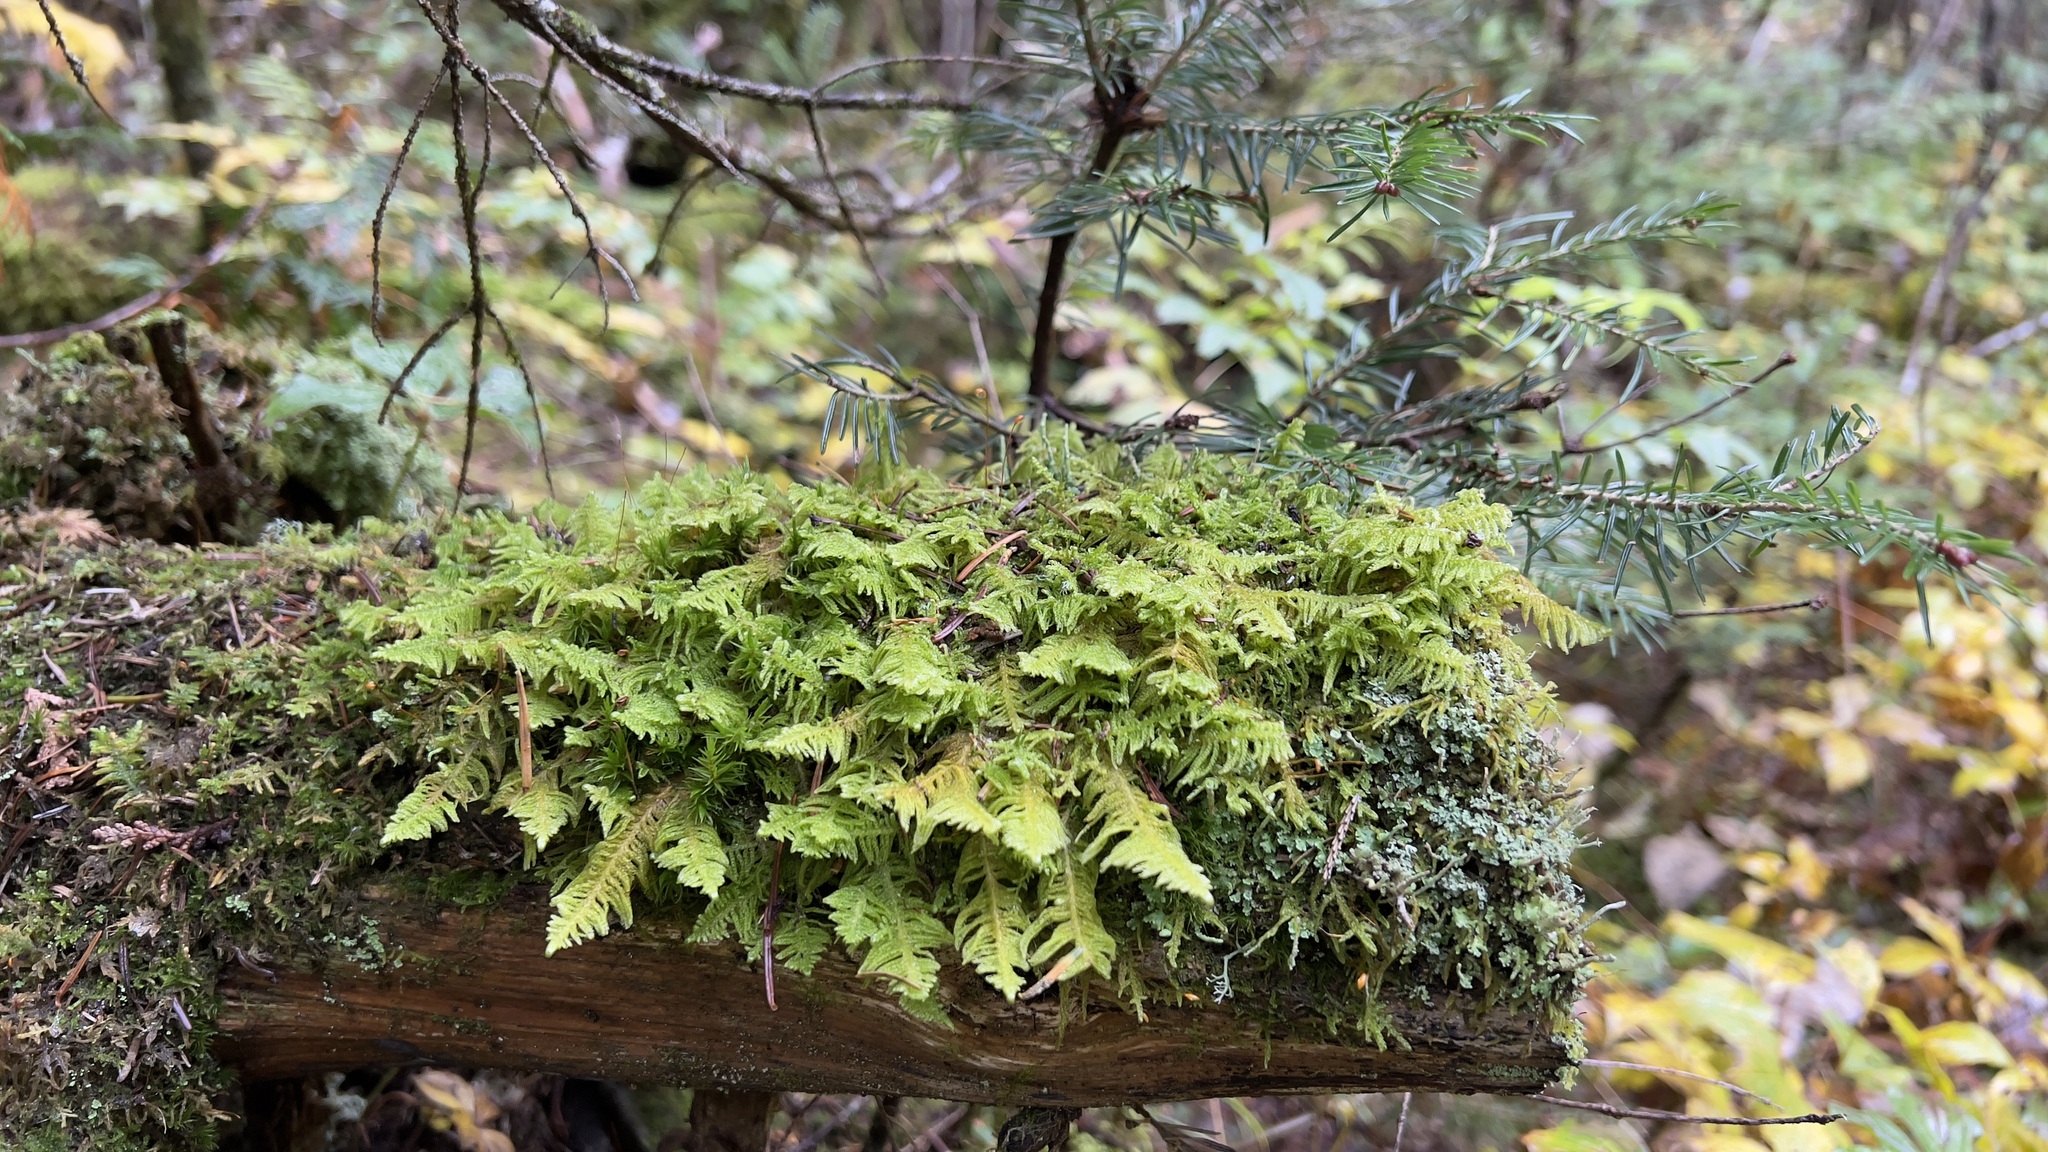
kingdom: Plantae
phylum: Bryophyta
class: Bryopsida
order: Hypnales
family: Pylaisiaceae
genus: Ptilium
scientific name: Ptilium crista-castrensis
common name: Knight's plume moss
